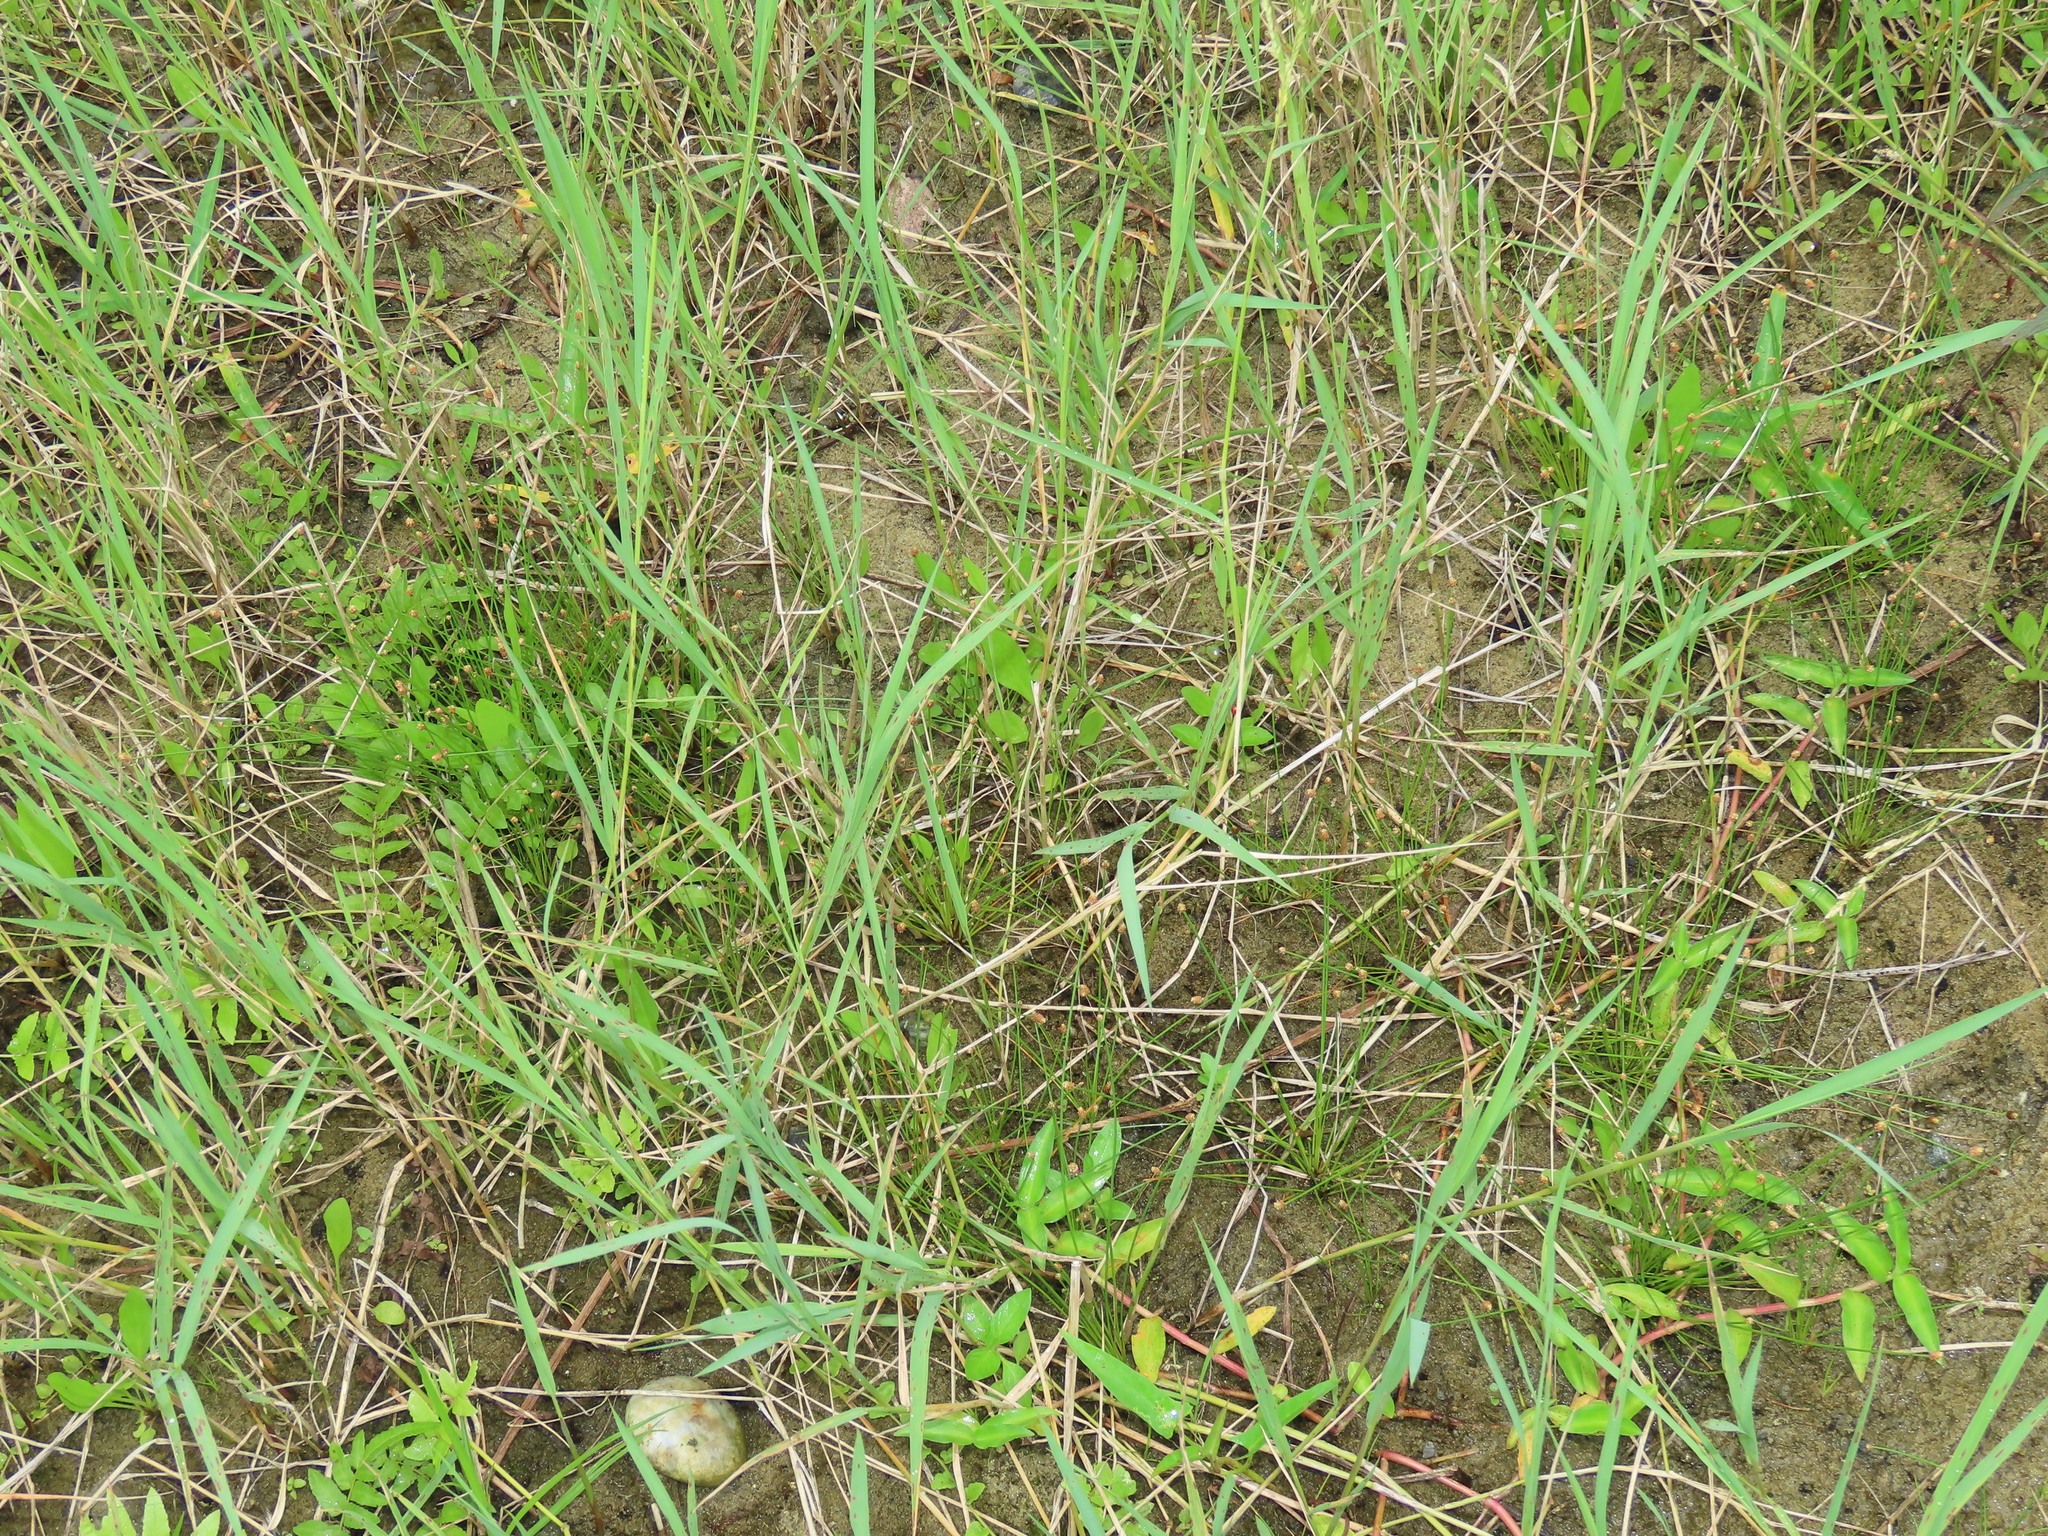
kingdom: Plantae
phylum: Tracheophyta
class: Liliopsida
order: Poales
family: Cyperaceae
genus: Eleocharis
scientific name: Eleocharis geniculata
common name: Canada spikesedge
